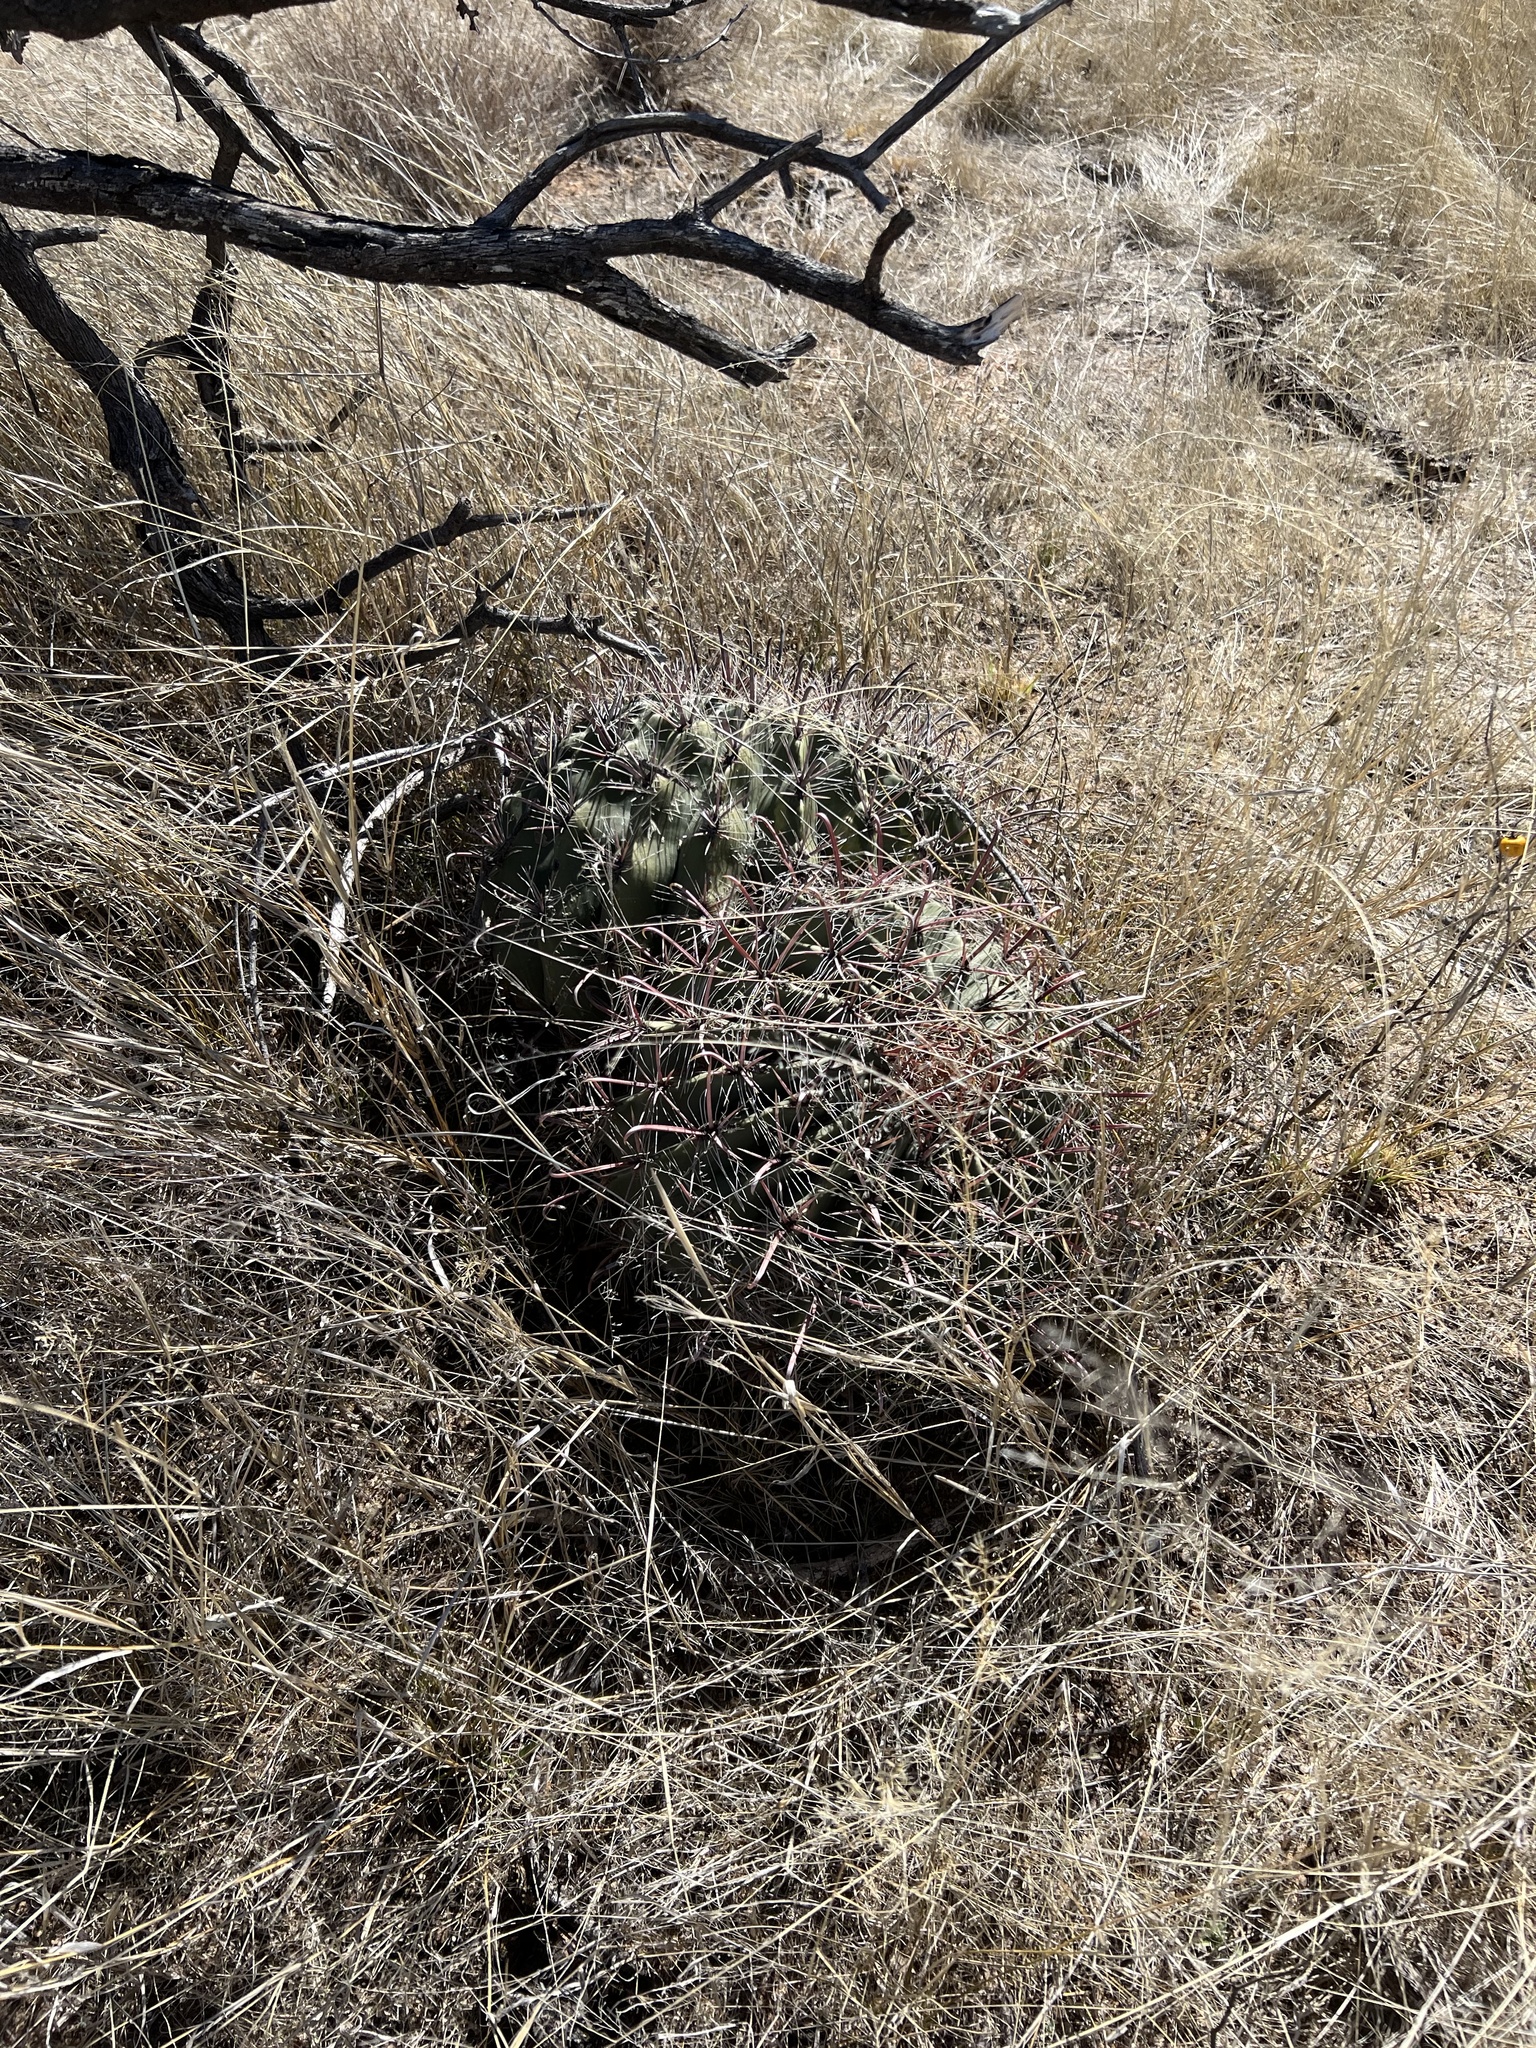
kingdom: Plantae
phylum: Tracheophyta
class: Magnoliopsida
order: Caryophyllales
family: Cactaceae
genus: Ferocactus
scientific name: Ferocactus wislizeni
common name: Candy barrel cactus
